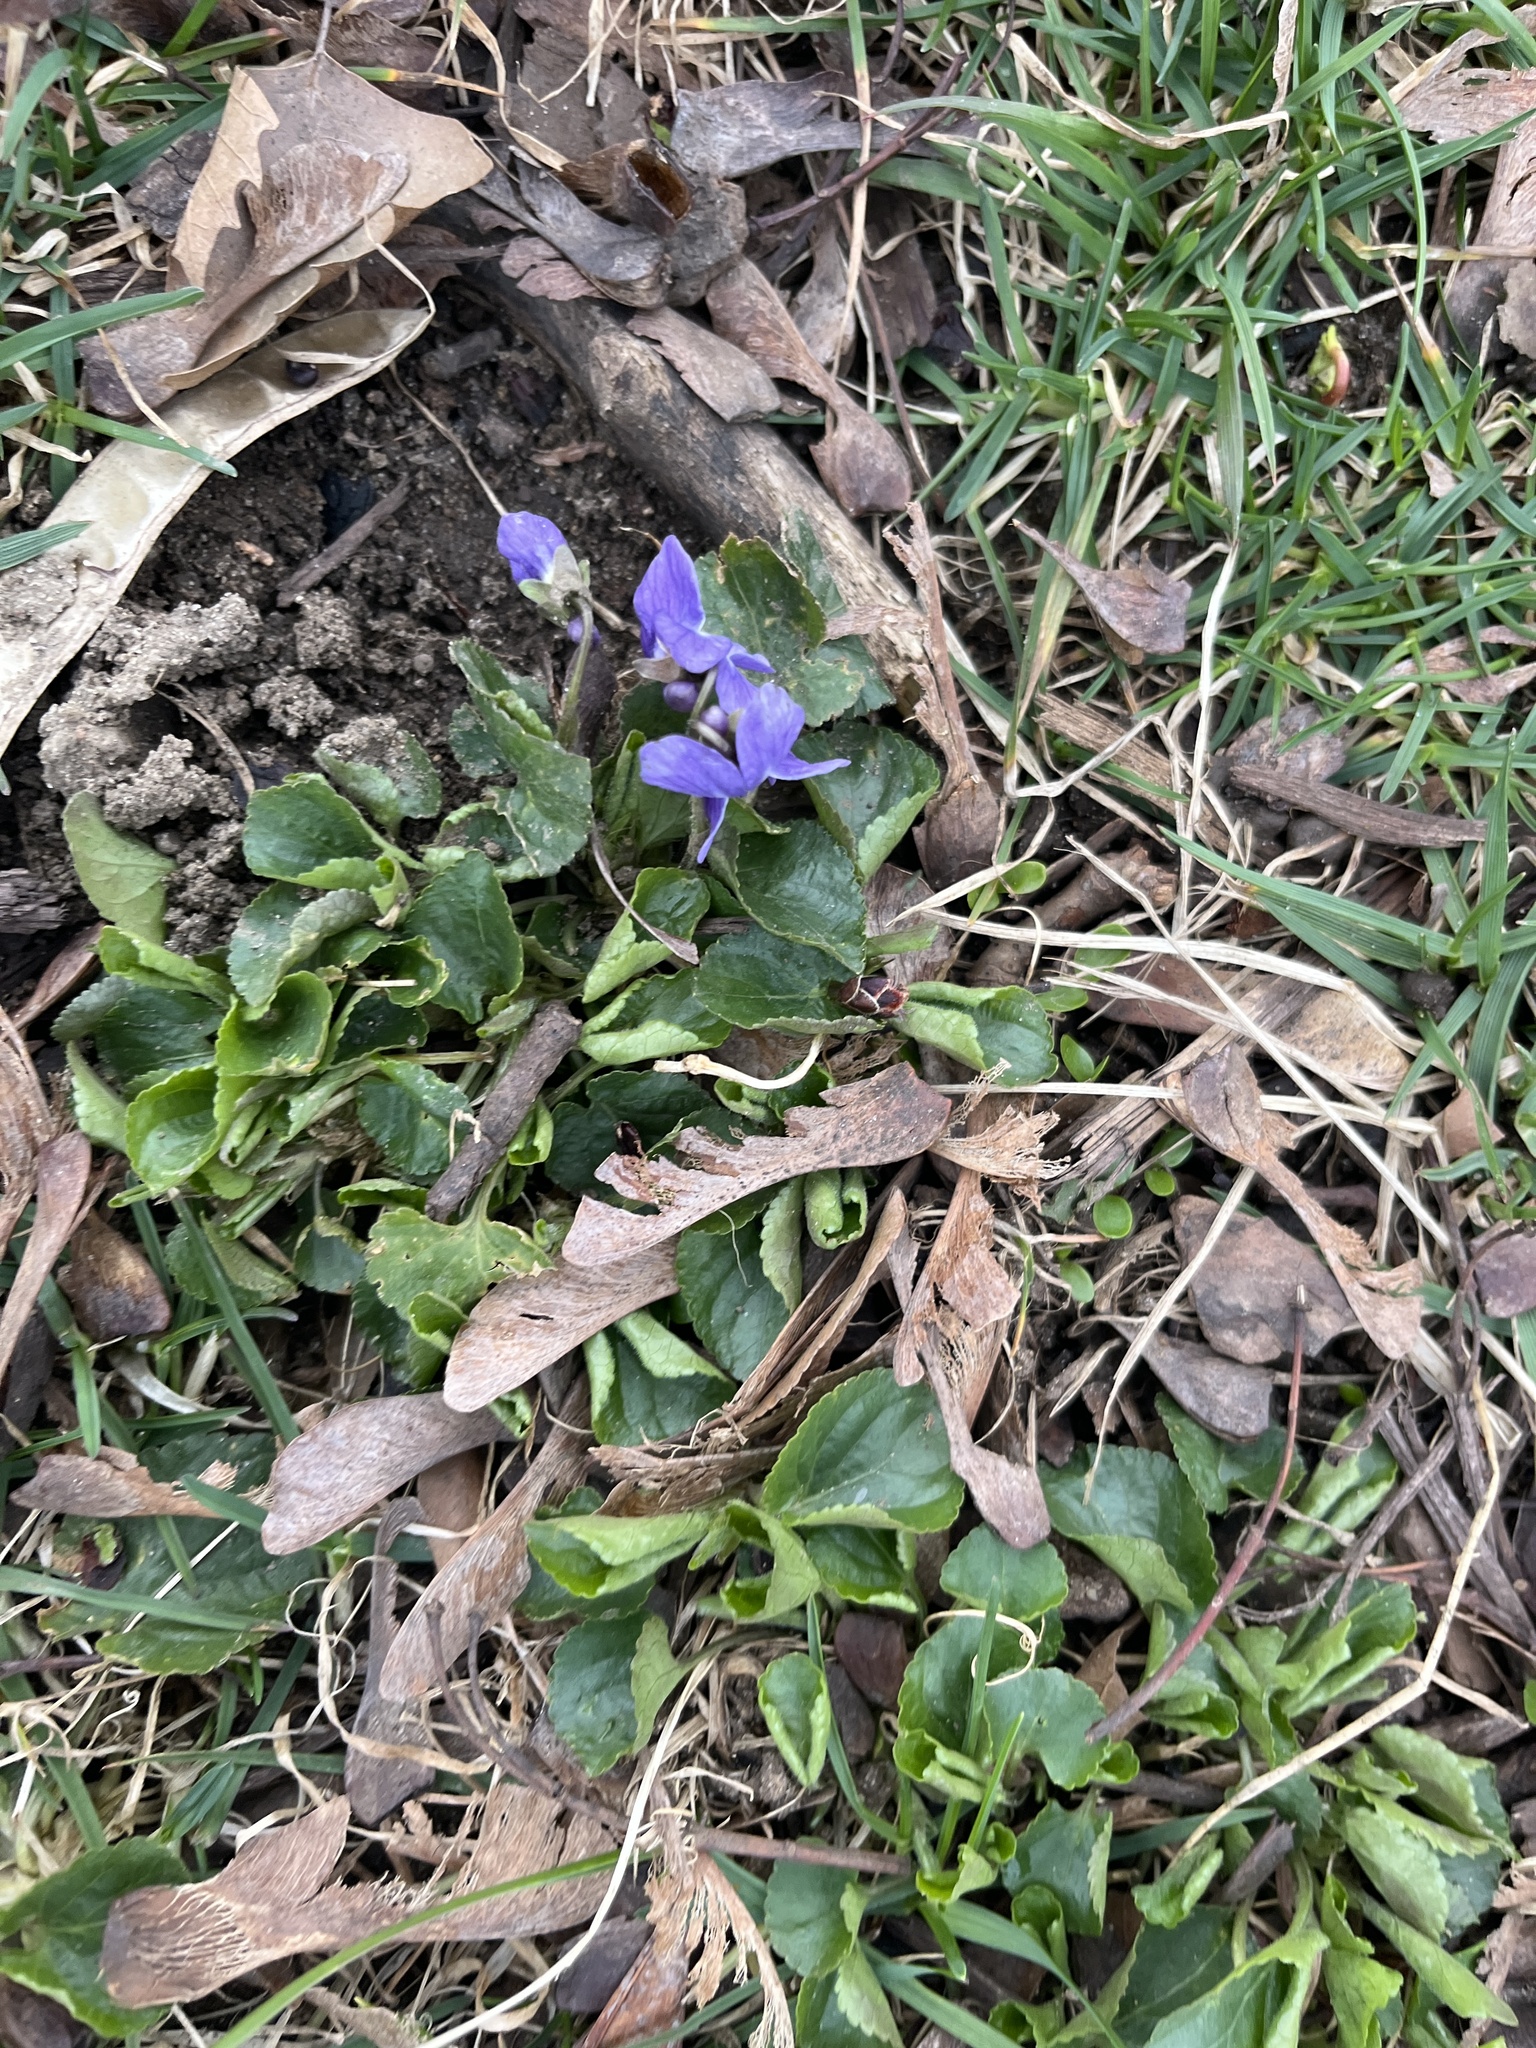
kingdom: Plantae
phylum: Tracheophyta
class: Magnoliopsida
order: Malpighiales
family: Violaceae
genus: Viola
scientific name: Viola odorata
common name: Sweet violet
